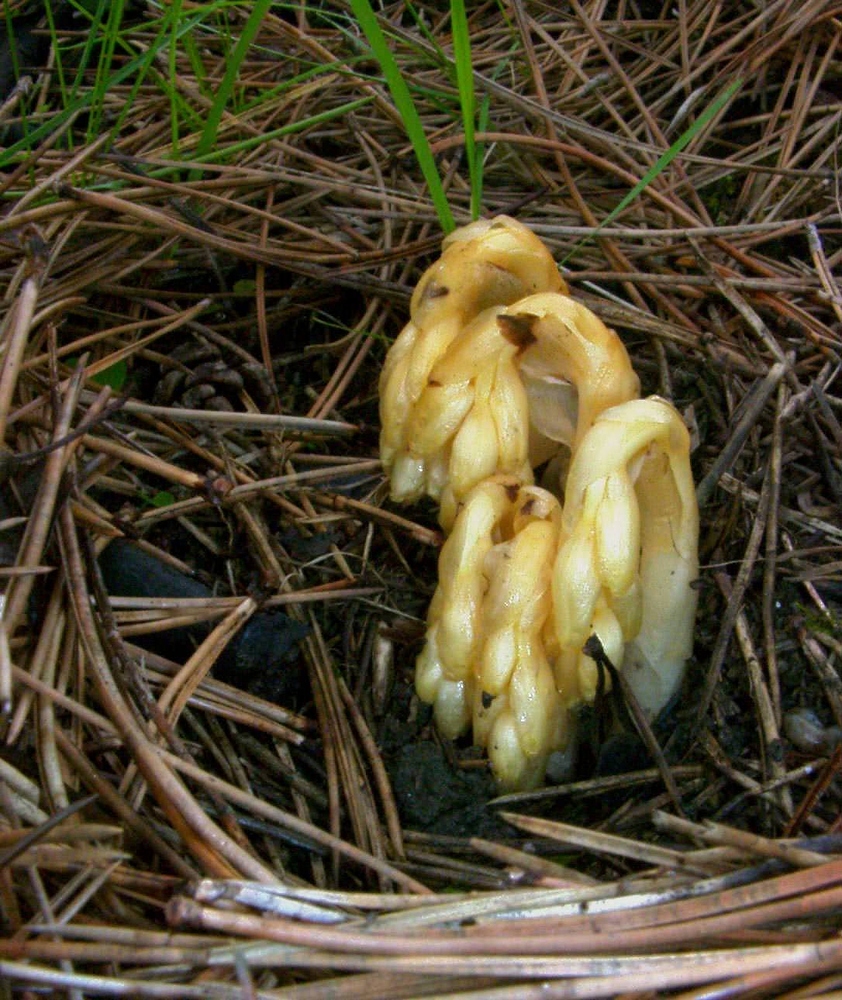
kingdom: Plantae
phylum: Tracheophyta
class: Magnoliopsida
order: Ericales
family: Ericaceae
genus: Hypopitys
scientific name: Hypopitys monotropa
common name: Yellow bird's-nest
